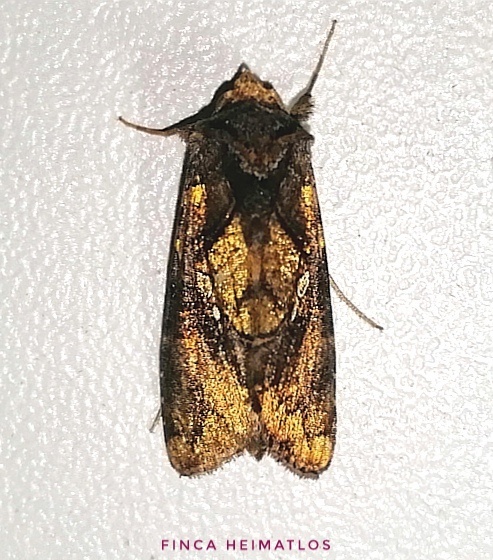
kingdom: Animalia
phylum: Arthropoda
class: Insecta
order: Lepidoptera
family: Noctuidae
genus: Argyrogramma
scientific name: Argyrogramma verruca
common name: Golden looper moth
